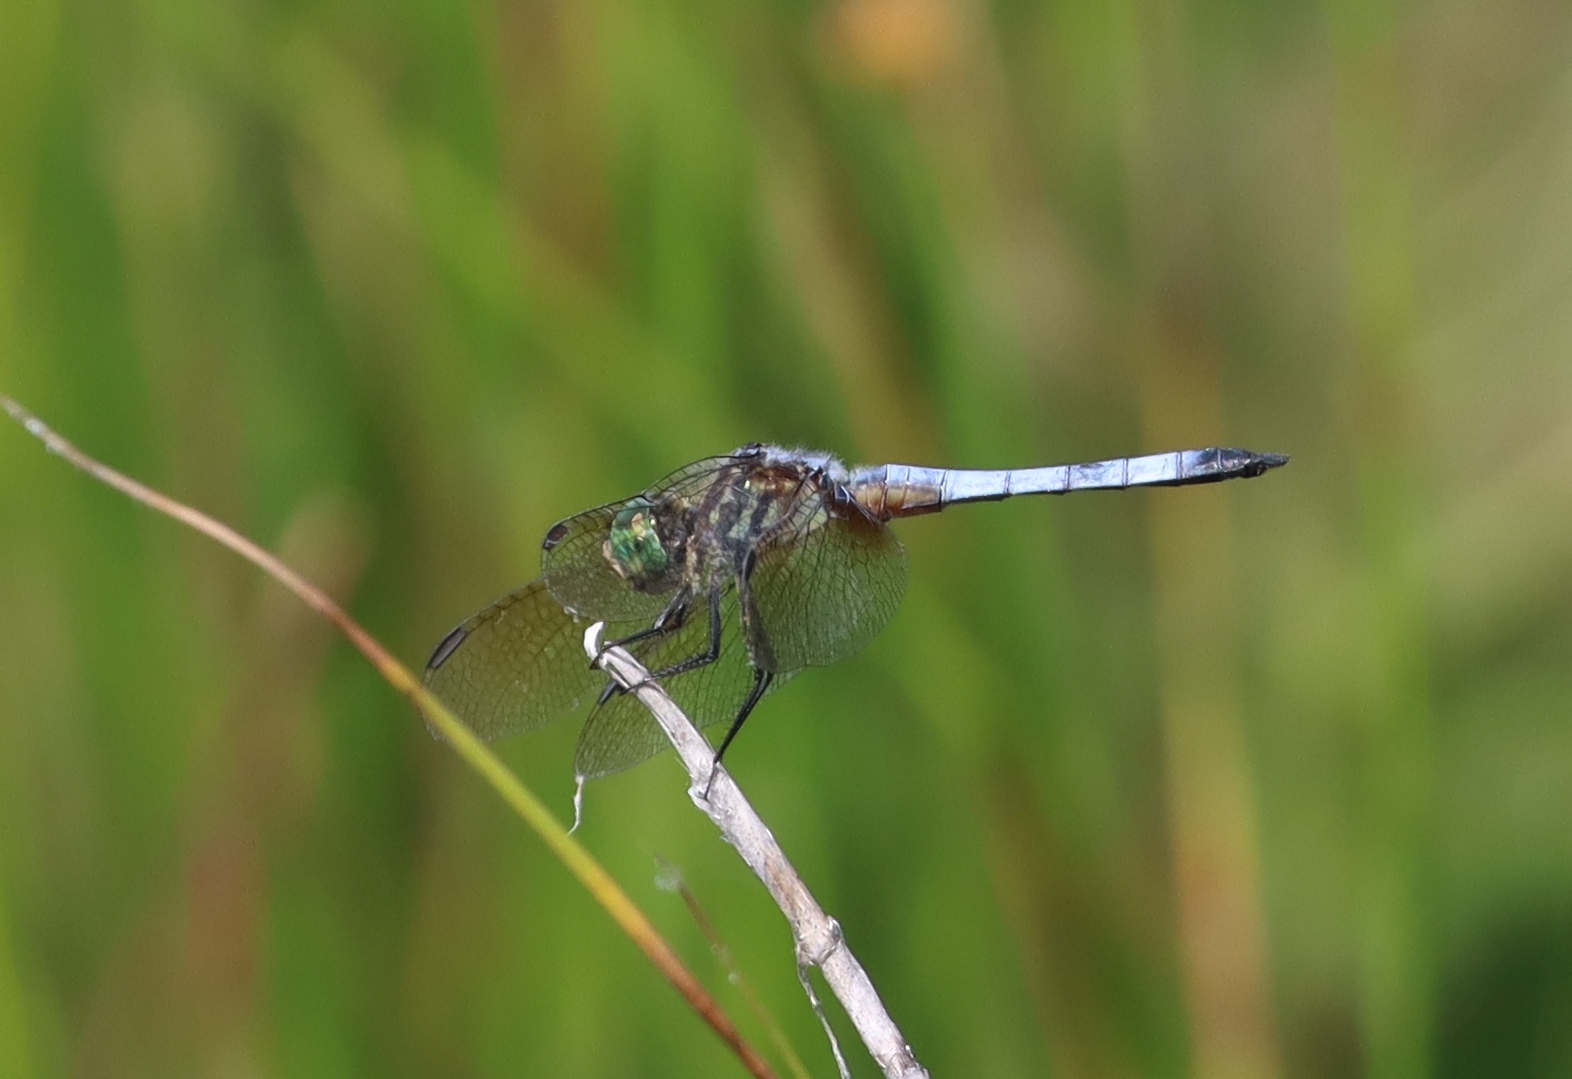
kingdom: Animalia
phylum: Arthropoda
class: Insecta
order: Odonata
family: Libellulidae
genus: Pachydiplax
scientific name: Pachydiplax longipennis
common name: Blue dasher
